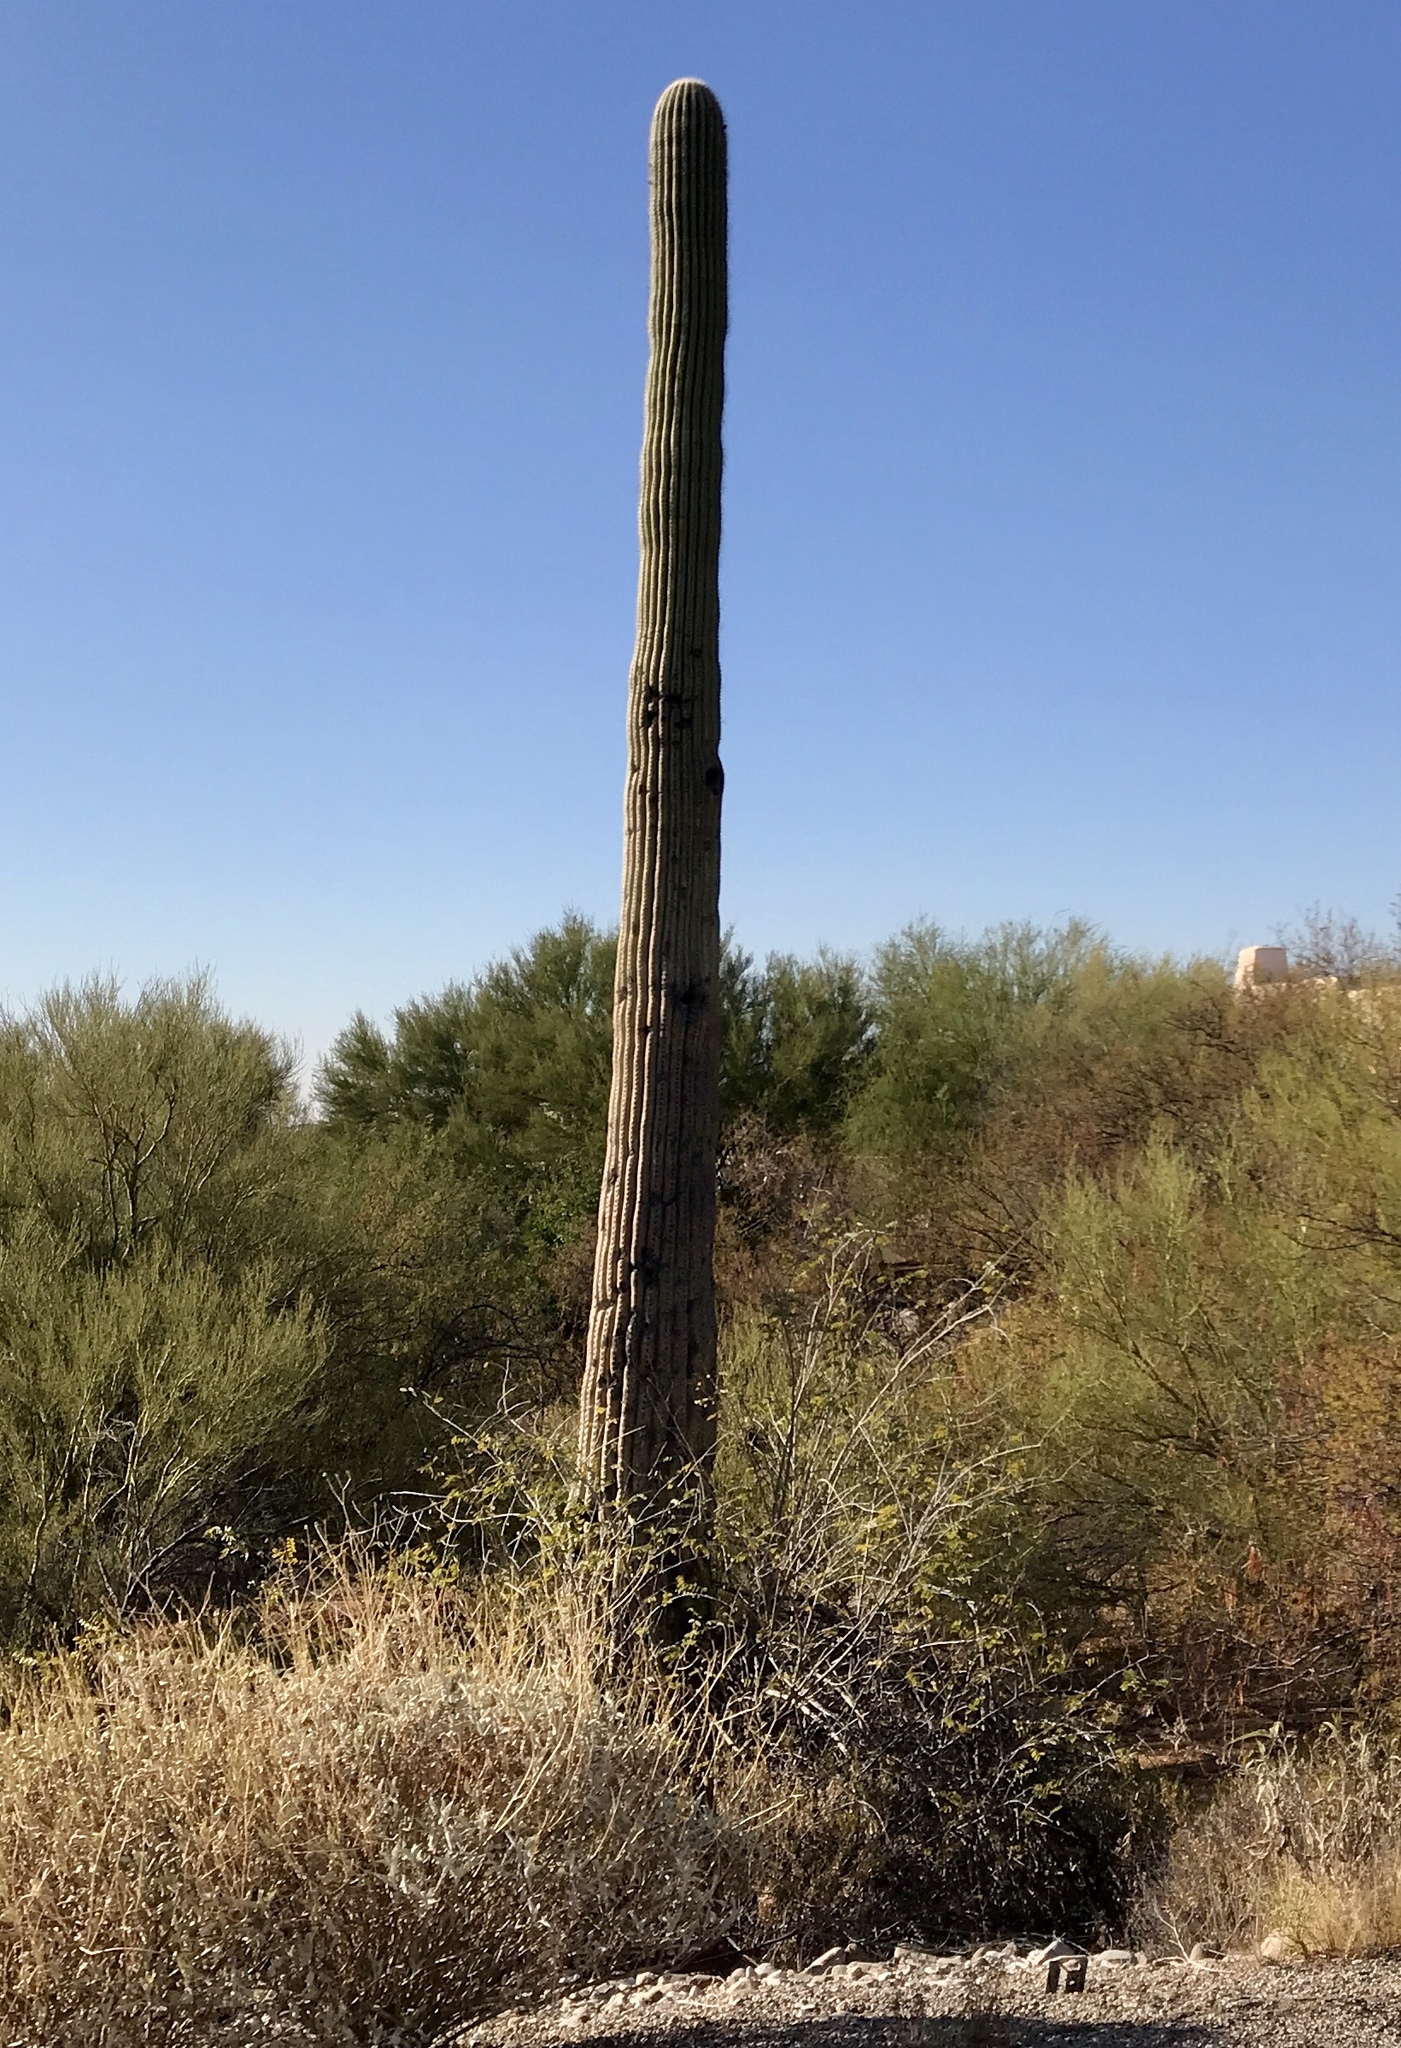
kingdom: Plantae
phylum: Tracheophyta
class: Magnoliopsida
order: Caryophyllales
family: Cactaceae
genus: Carnegiea
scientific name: Carnegiea gigantea
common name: Saguaro
